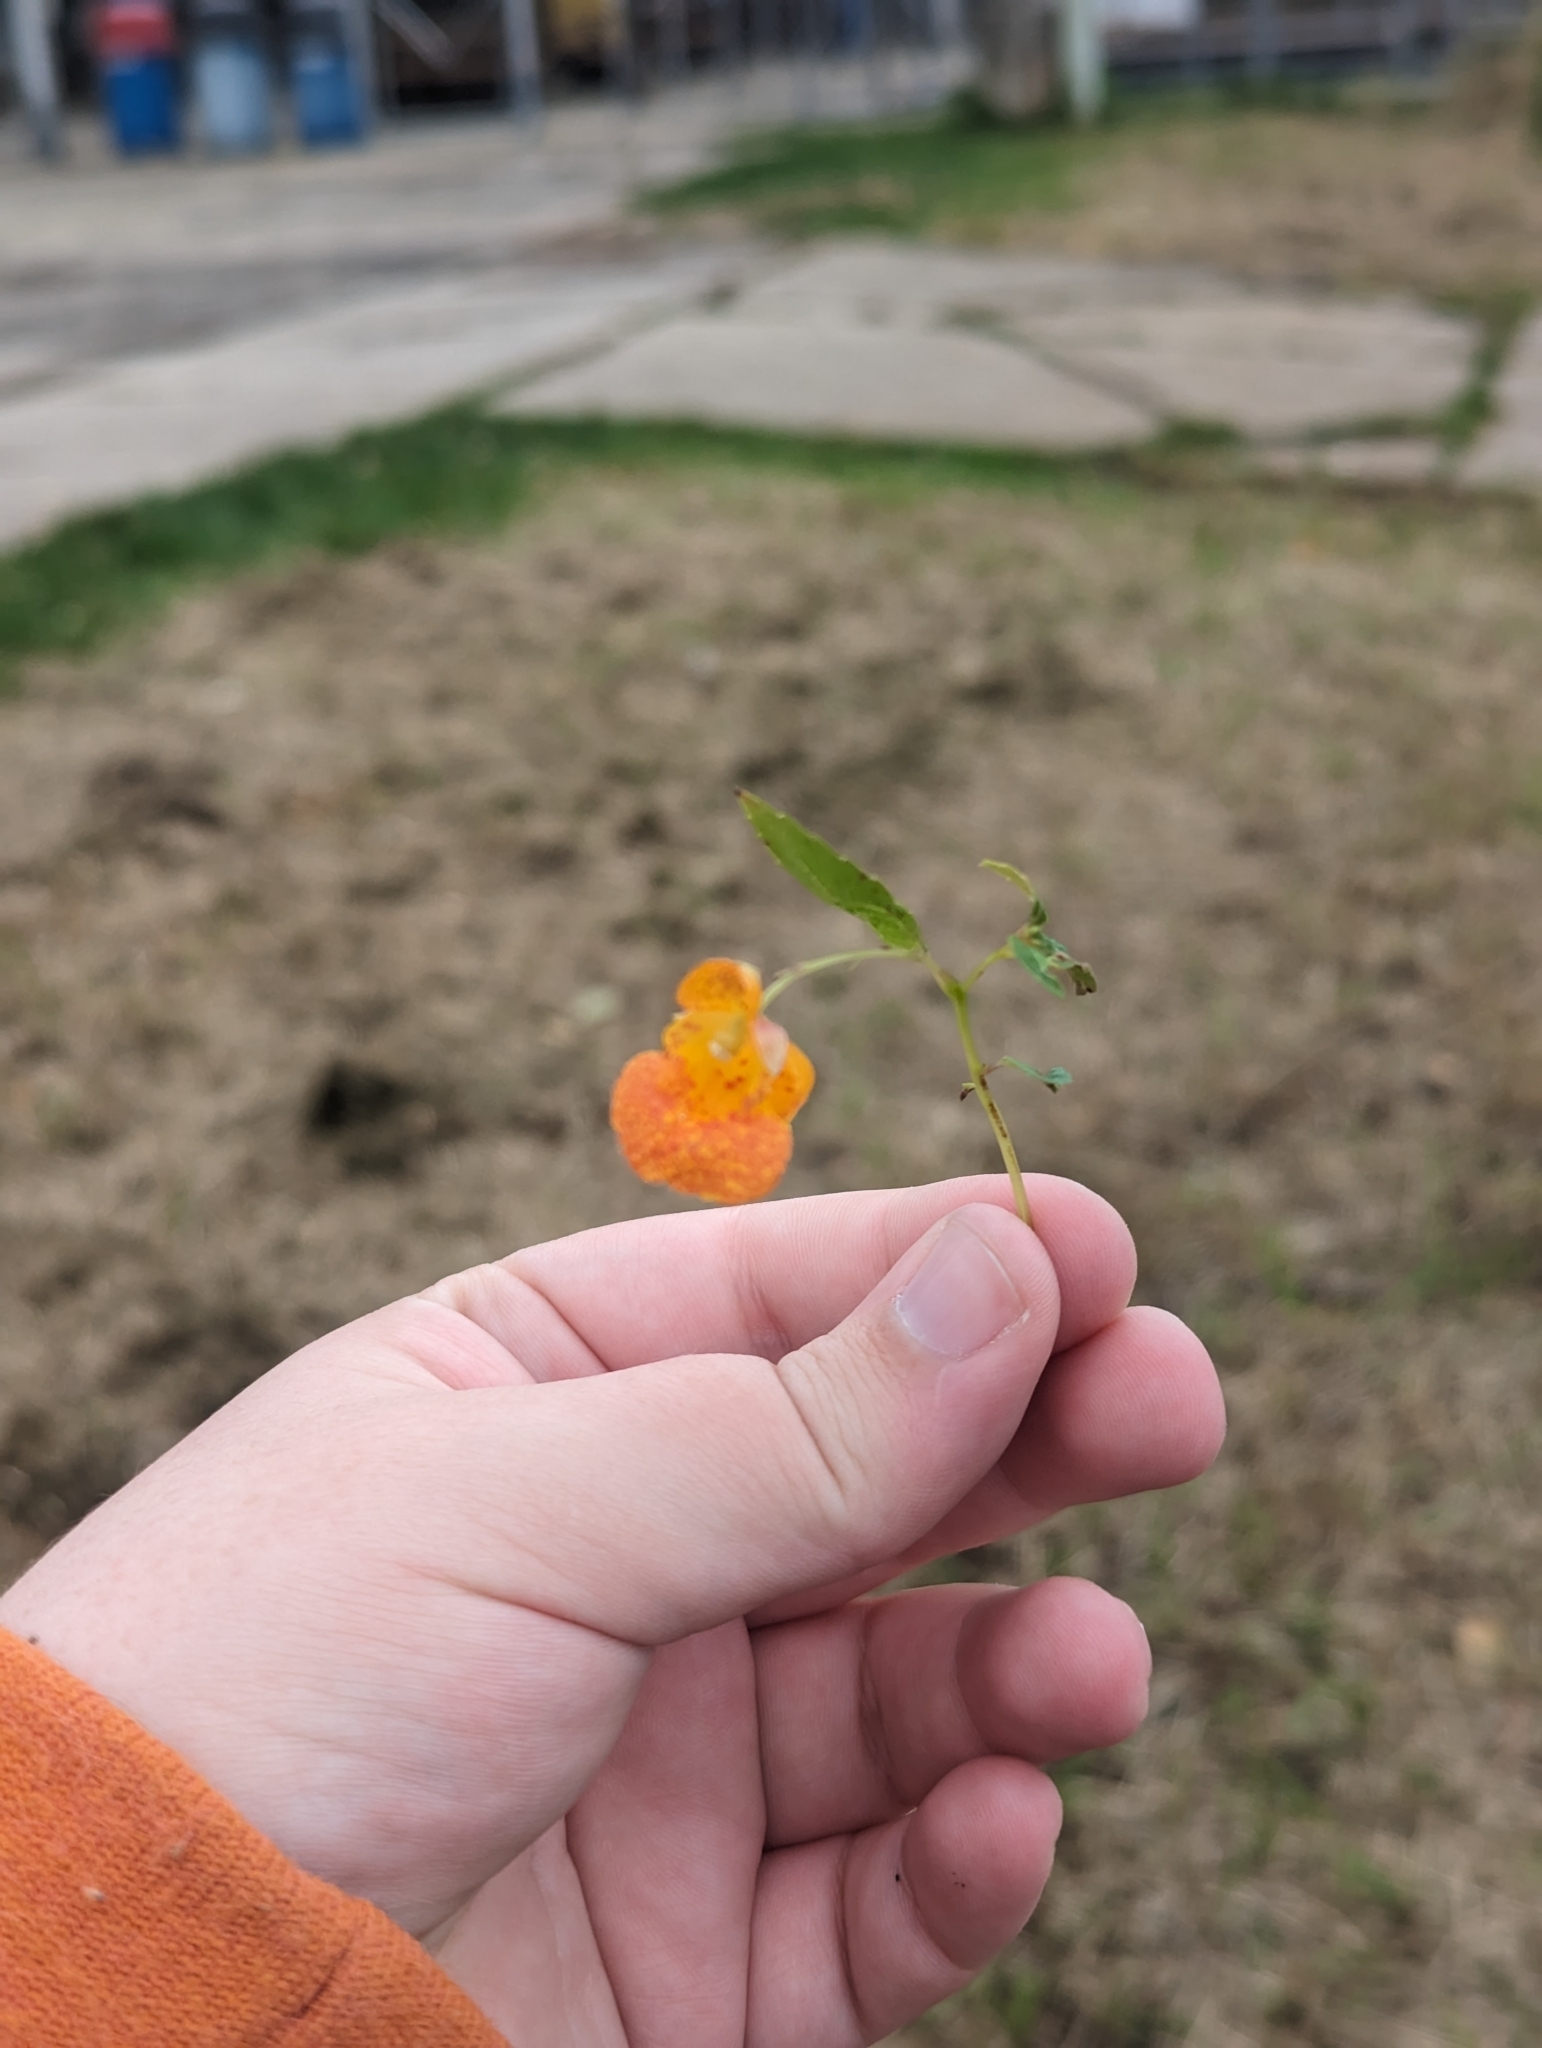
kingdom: Plantae
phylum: Tracheophyta
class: Magnoliopsida
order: Ericales
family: Balsaminaceae
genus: Impatiens
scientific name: Impatiens capensis
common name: Orange balsam
